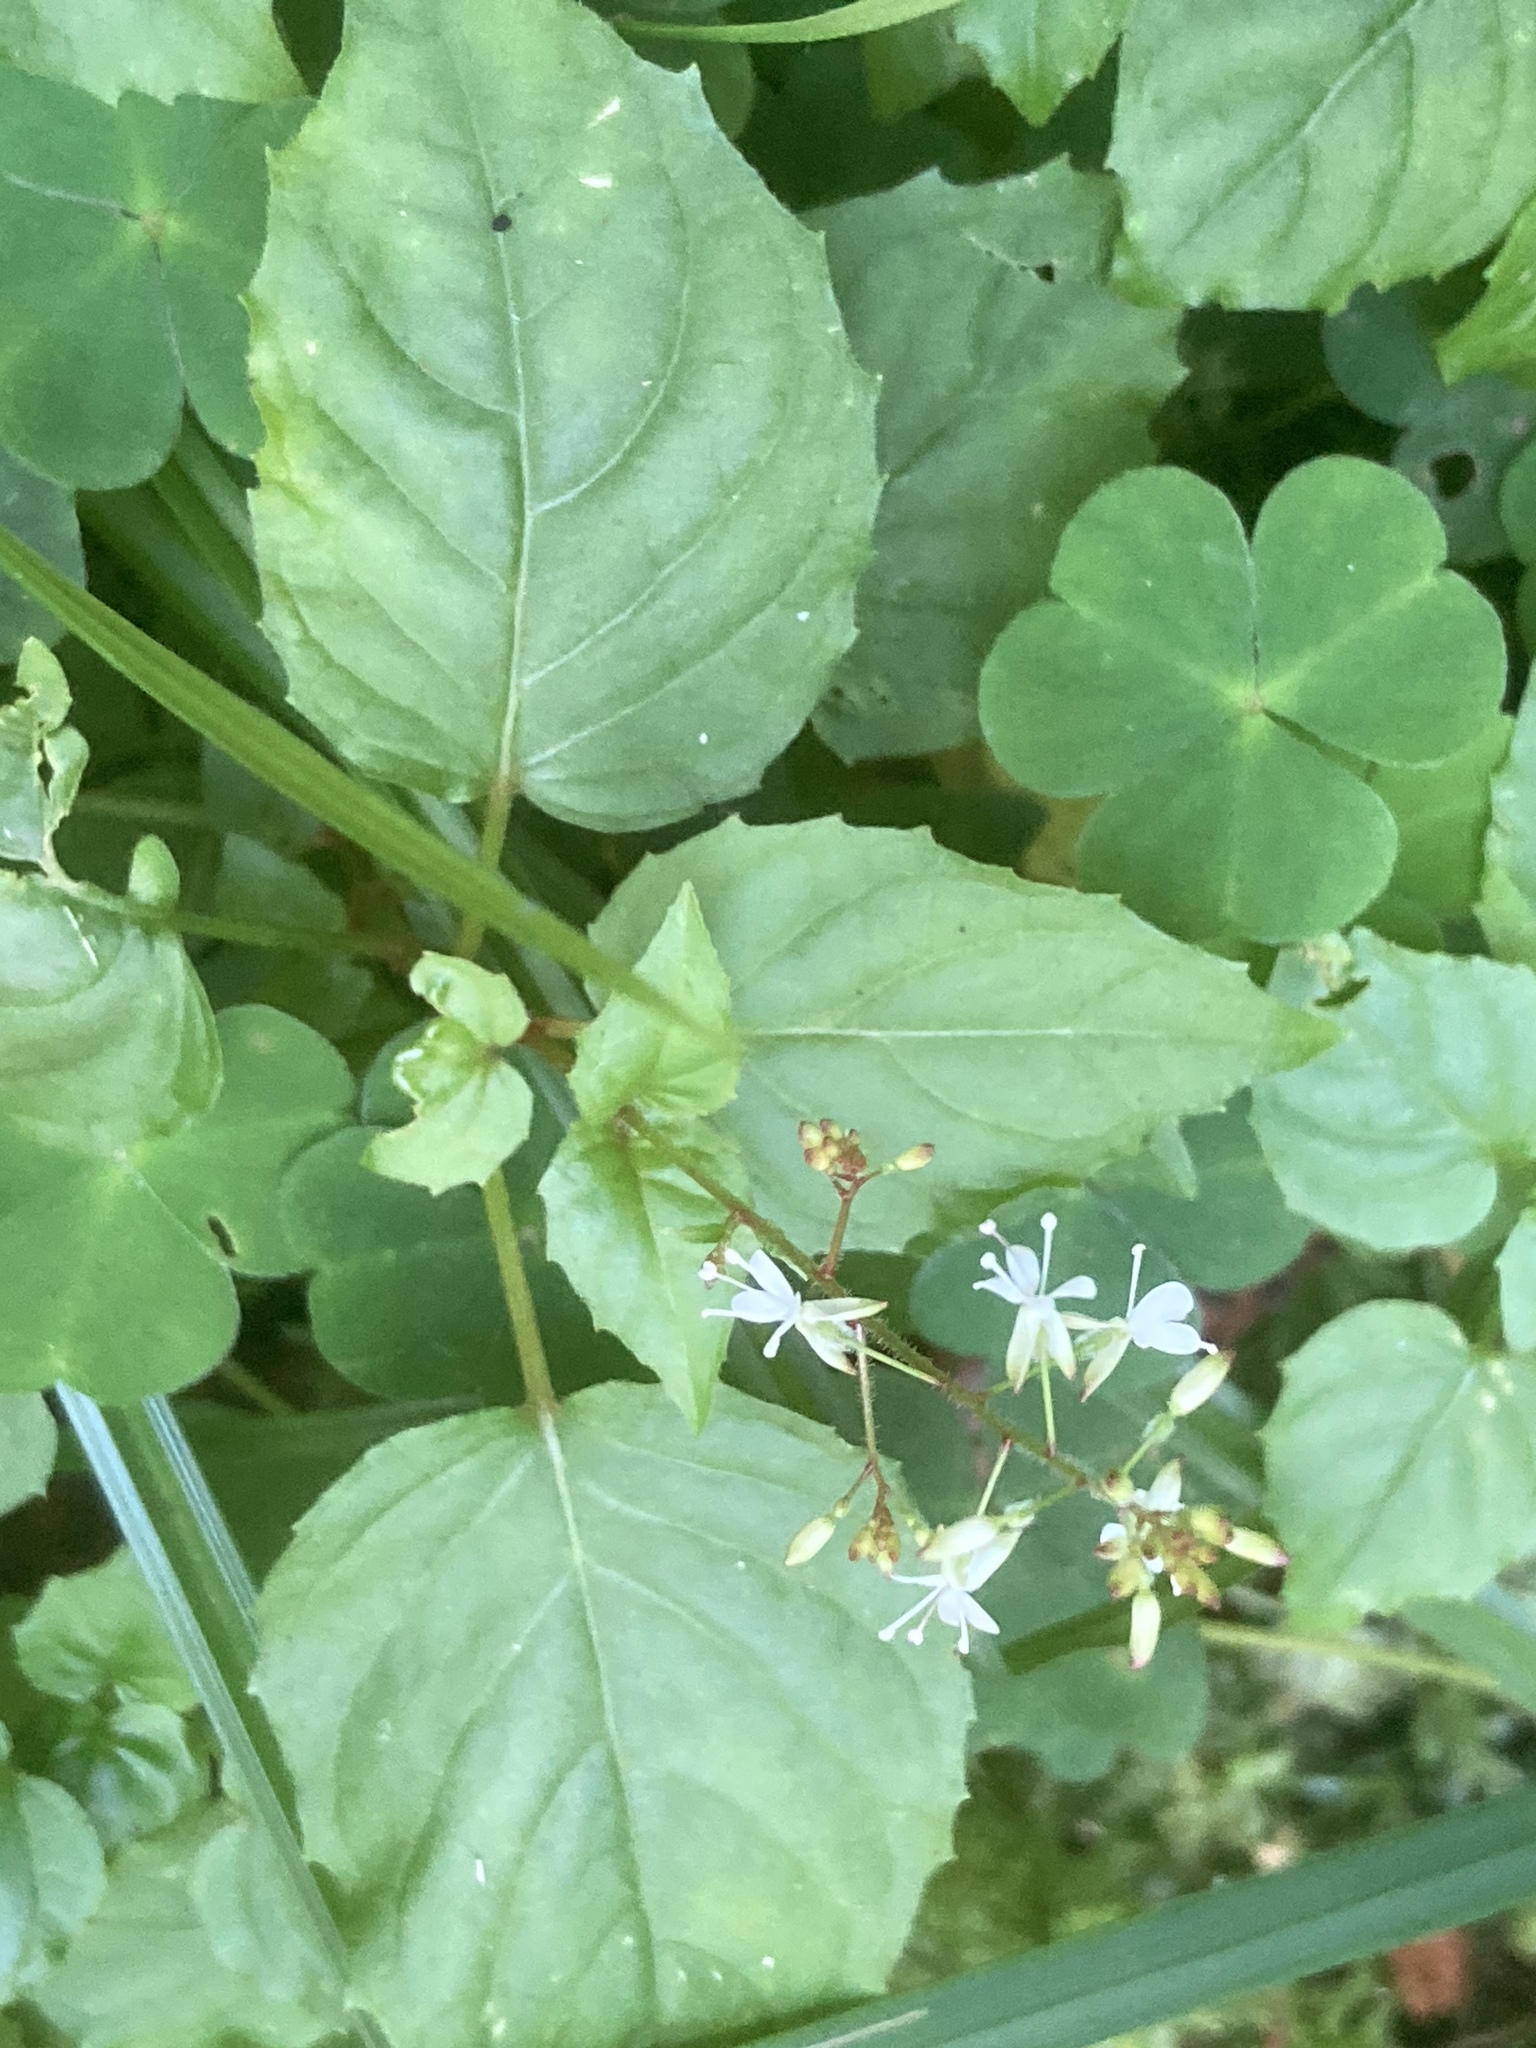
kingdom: Plantae
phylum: Tracheophyta
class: Magnoliopsida
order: Myrtales
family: Onagraceae
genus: Circaea
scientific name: Circaea lutetiana
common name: Enchanter's-nightshade
